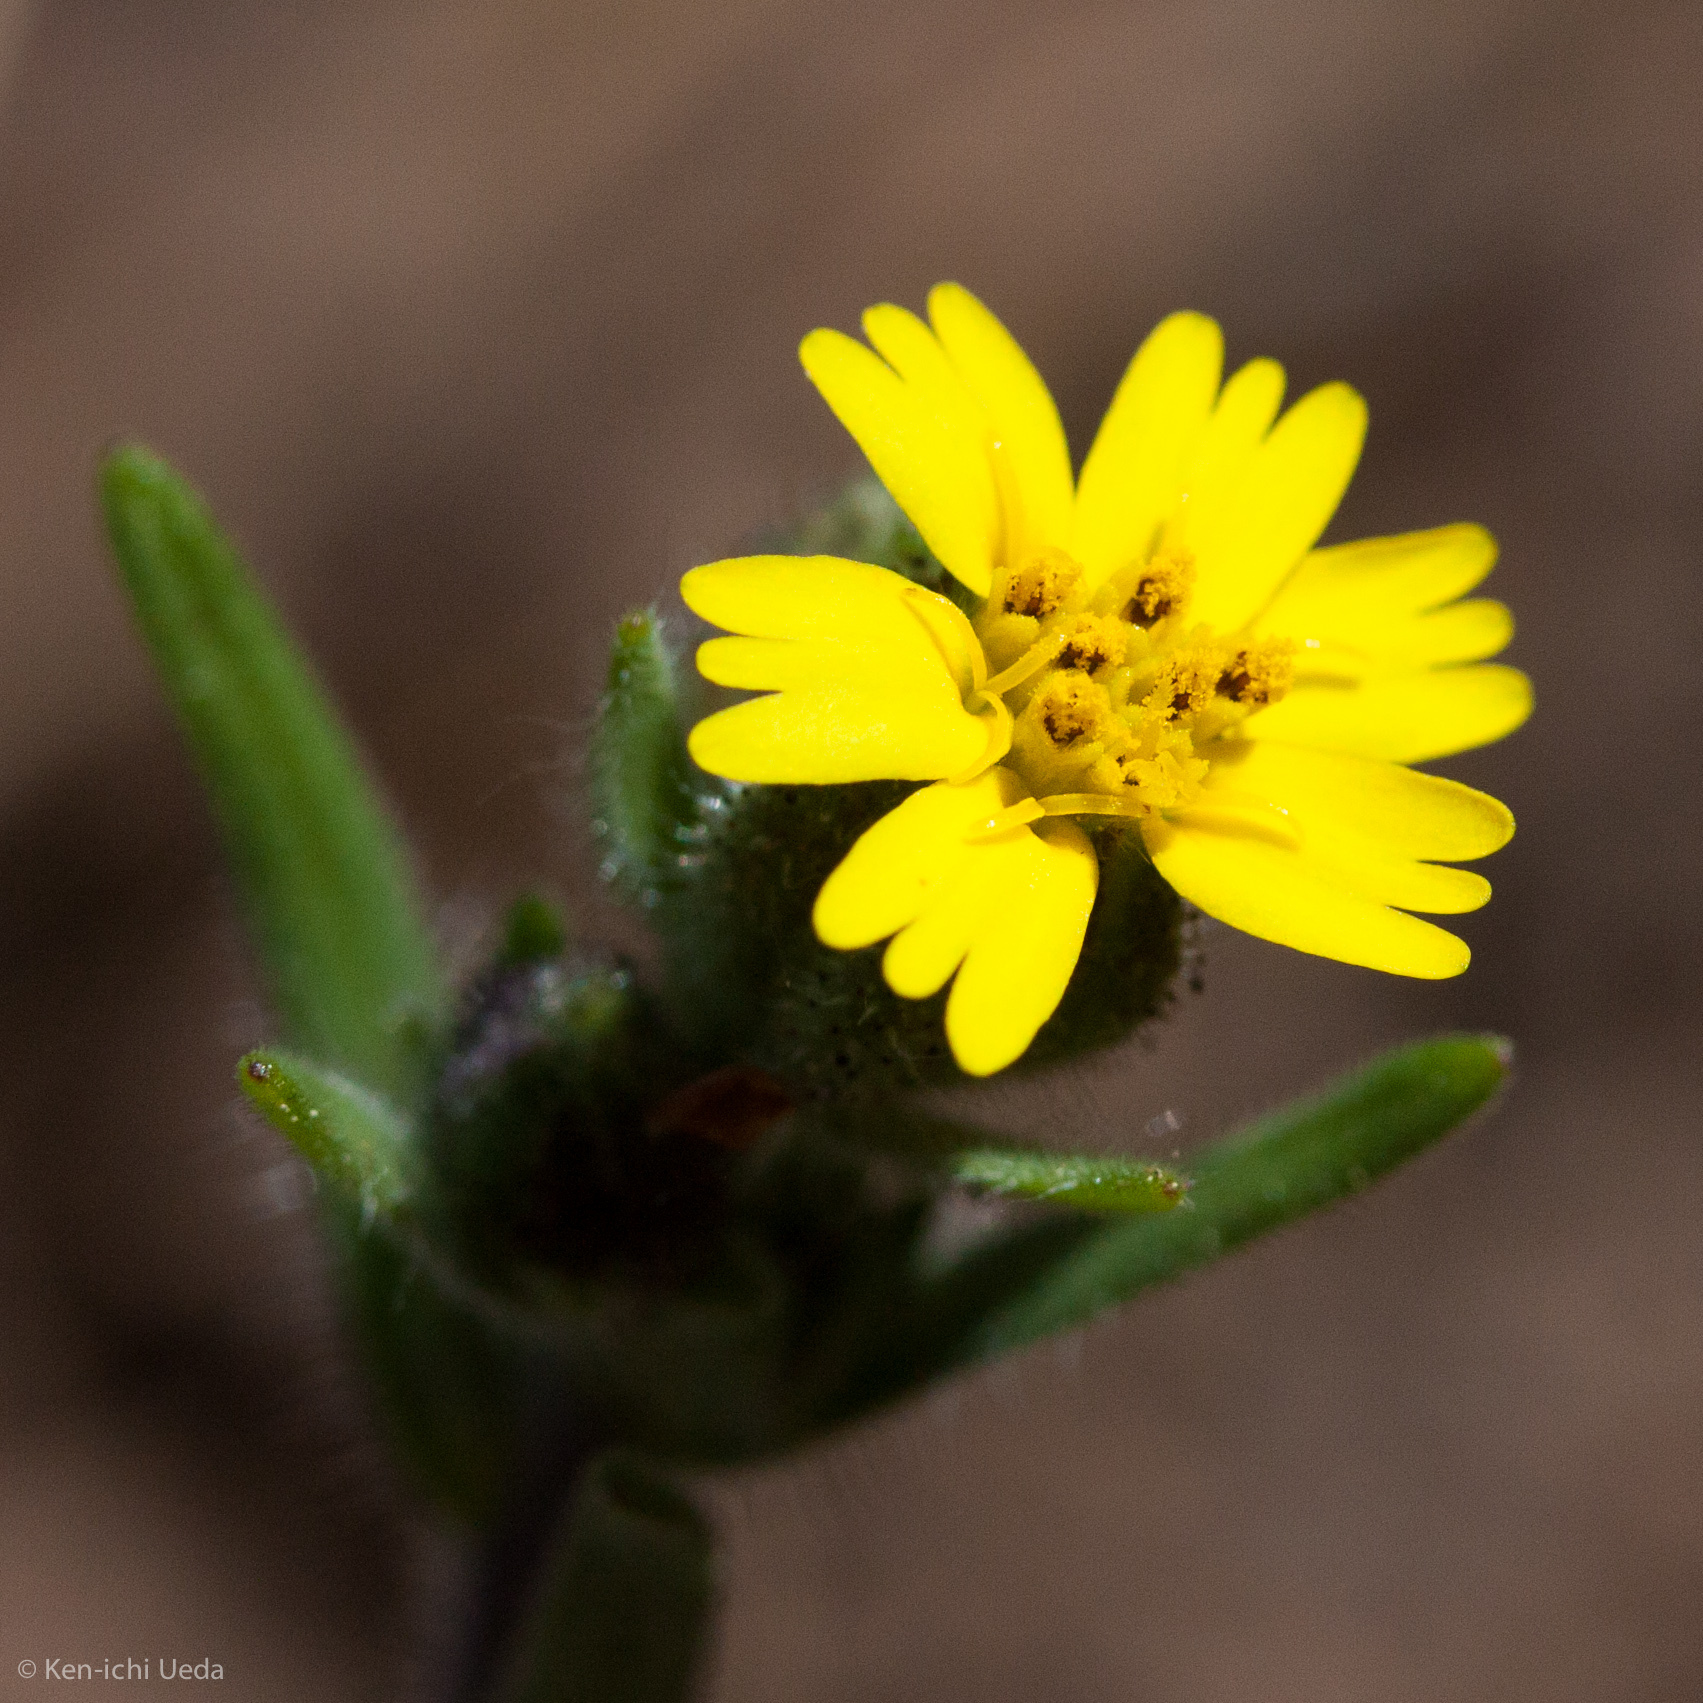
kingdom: Plantae
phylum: Tracheophyta
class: Magnoliopsida
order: Asterales
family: Asteraceae
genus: Madia
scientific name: Madia gracilis
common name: Grassy tarweed
